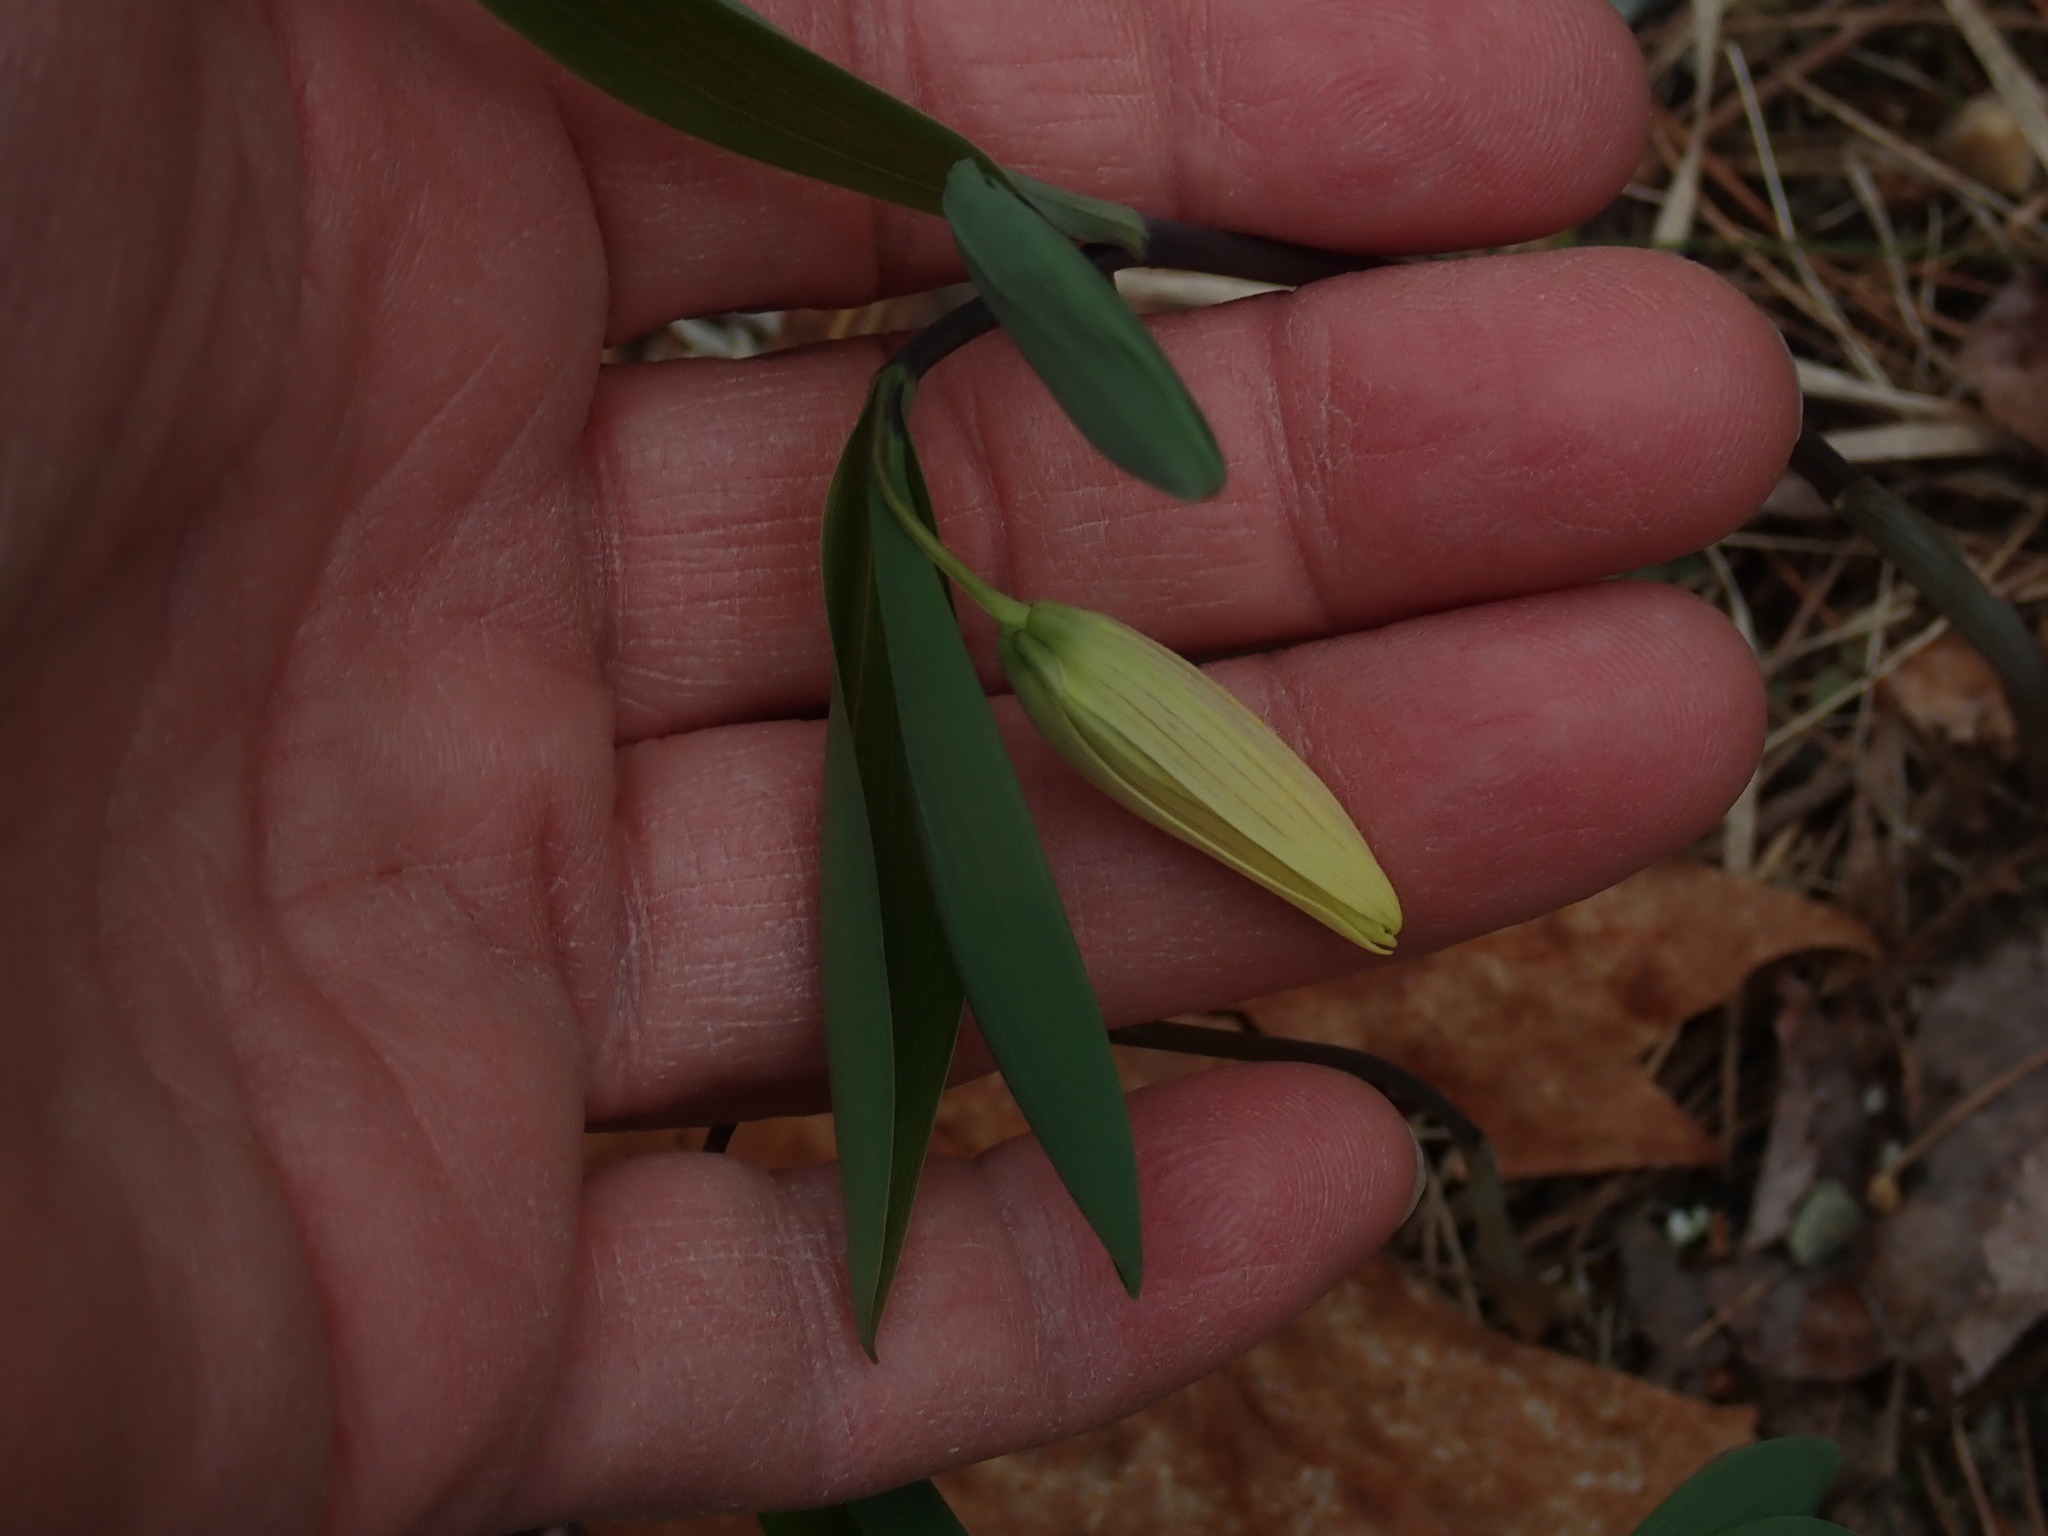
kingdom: Plantae
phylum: Tracheophyta
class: Liliopsida
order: Liliales
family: Colchicaceae
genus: Uvularia
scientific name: Uvularia sessilifolia
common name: Straw-lily
